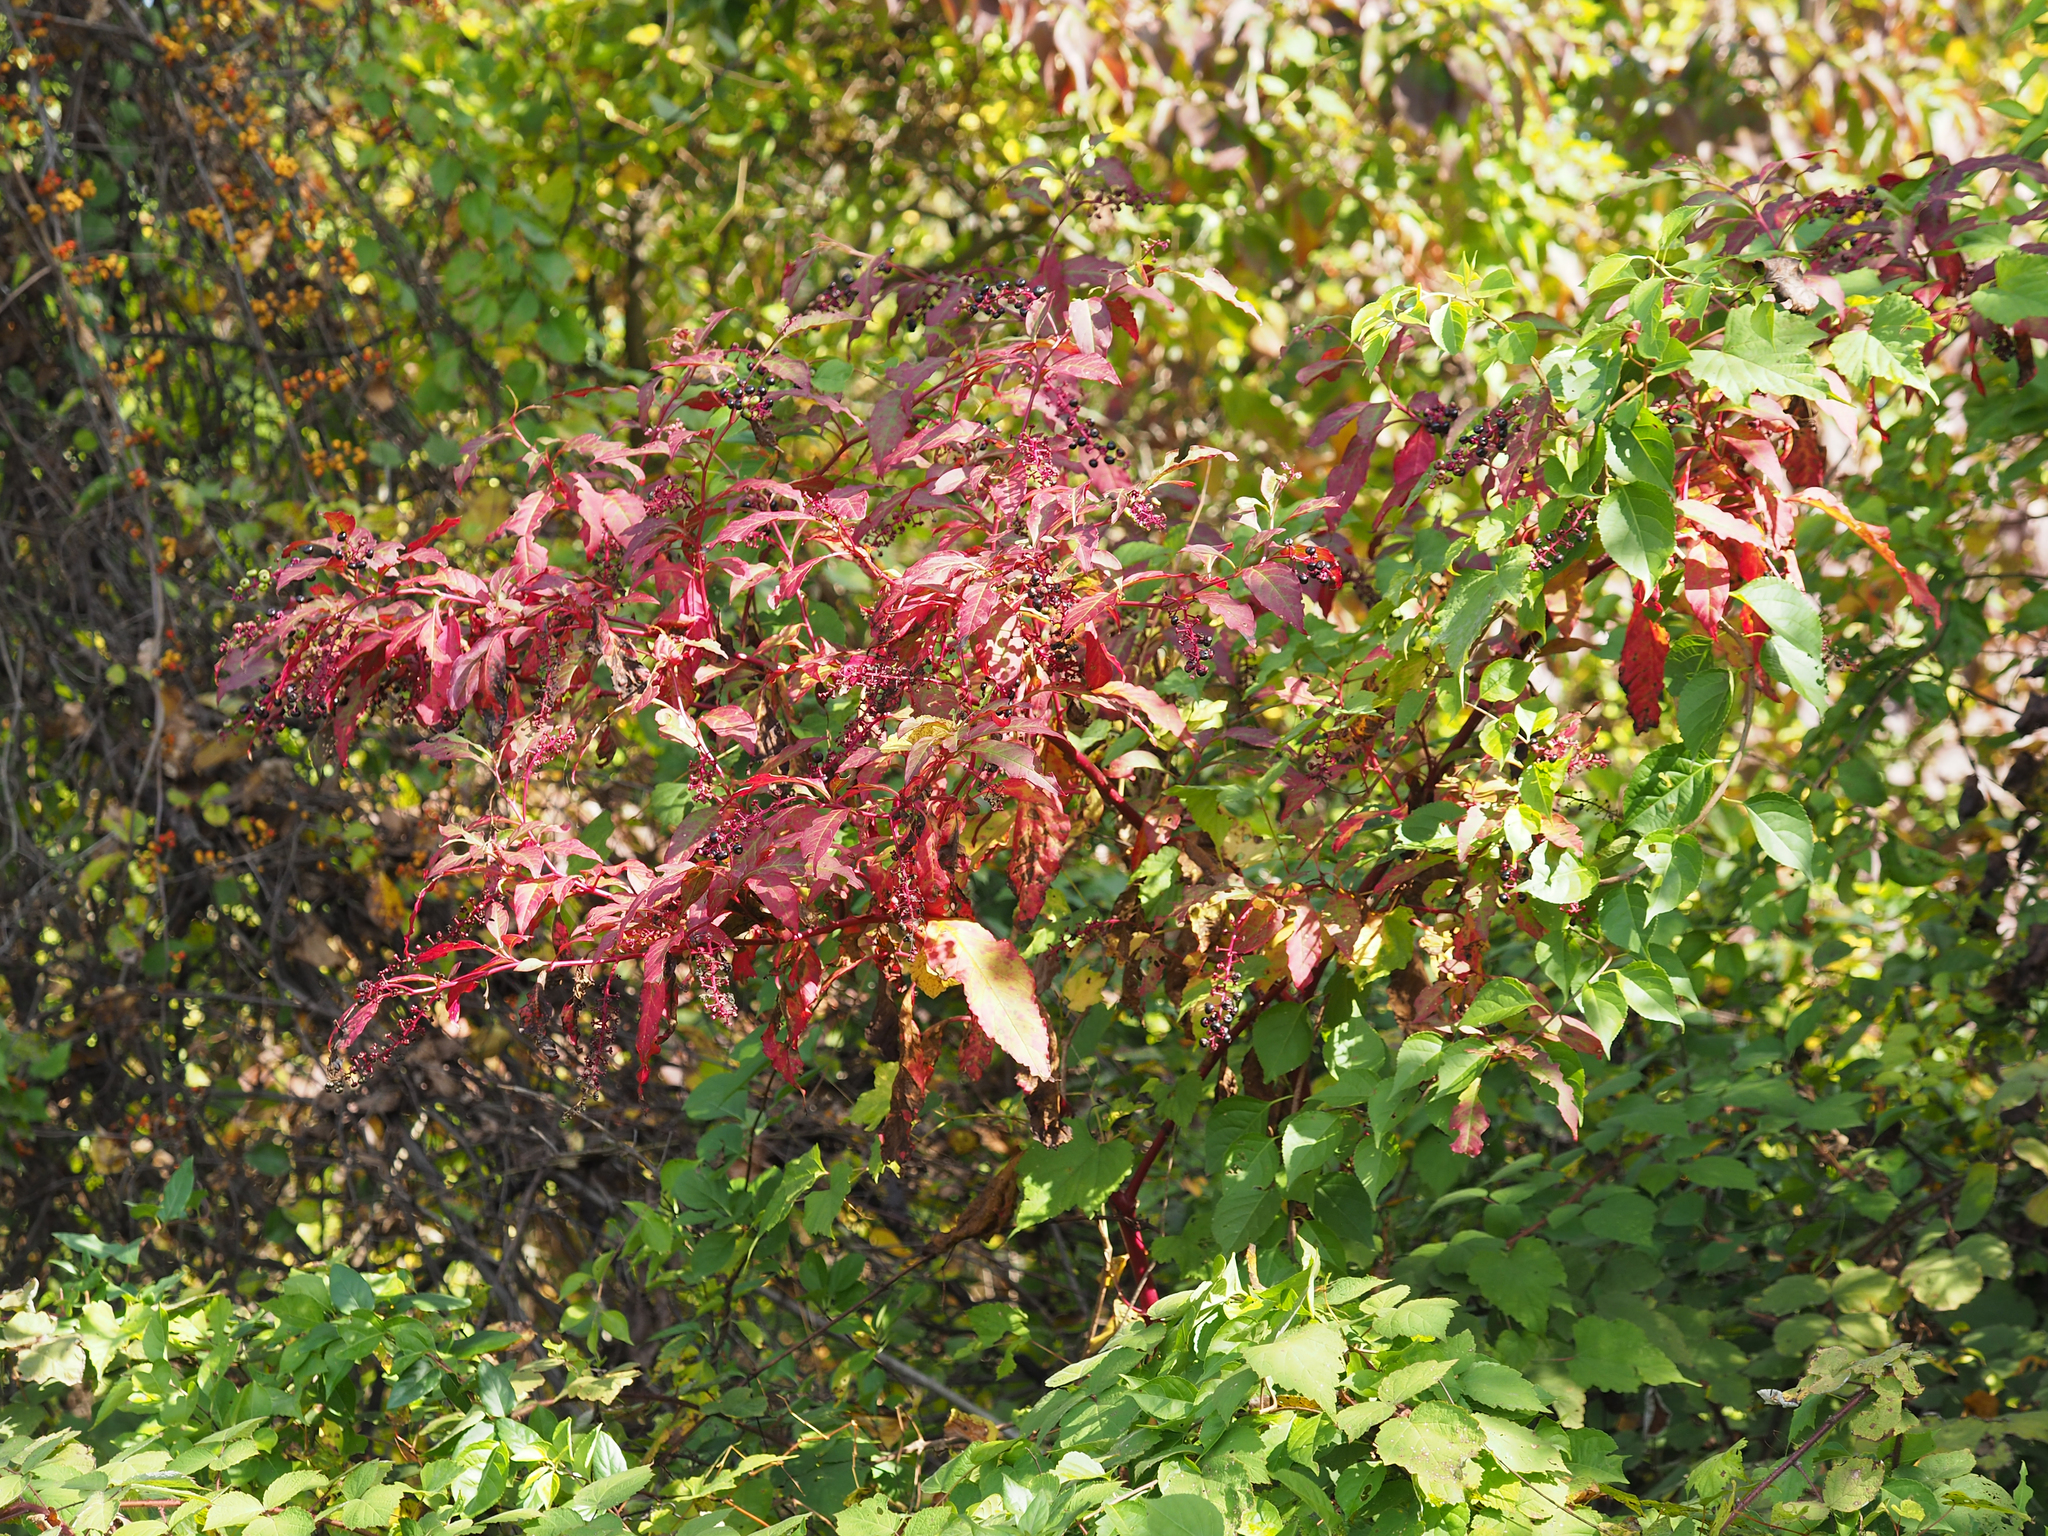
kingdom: Plantae
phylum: Tracheophyta
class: Magnoliopsida
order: Caryophyllales
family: Phytolaccaceae
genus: Phytolacca
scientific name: Phytolacca americana
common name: American pokeweed
